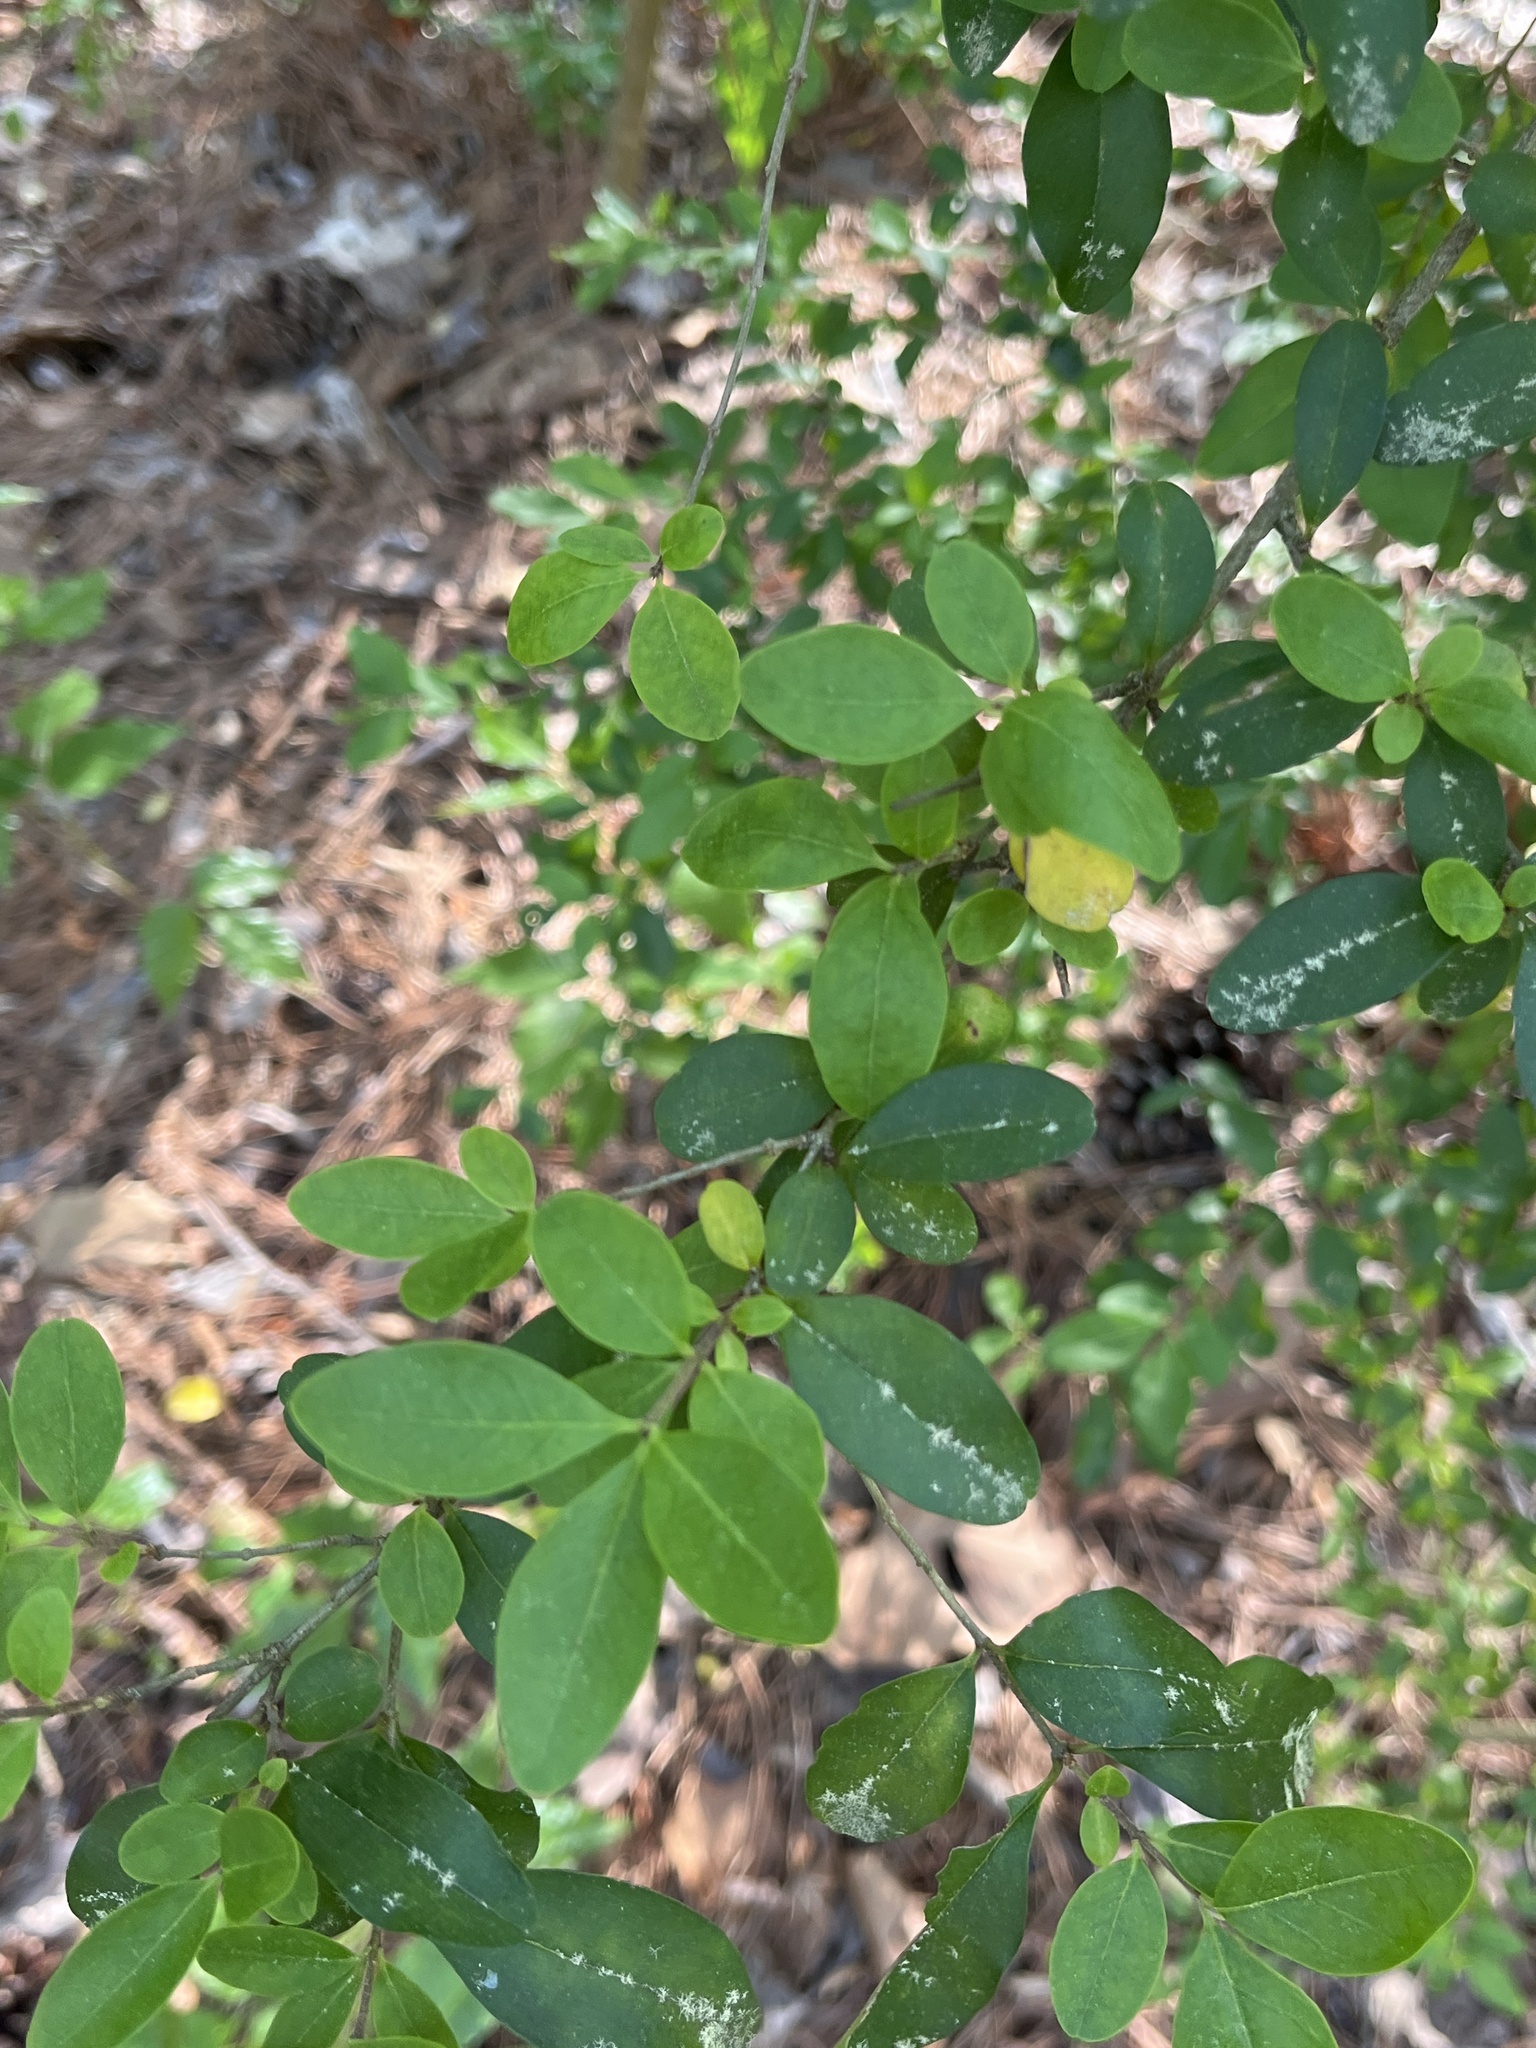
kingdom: Plantae
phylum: Tracheophyta
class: Magnoliopsida
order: Lamiales
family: Oleaceae
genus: Ligustrum
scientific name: Ligustrum sinense
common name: Chinese privet
